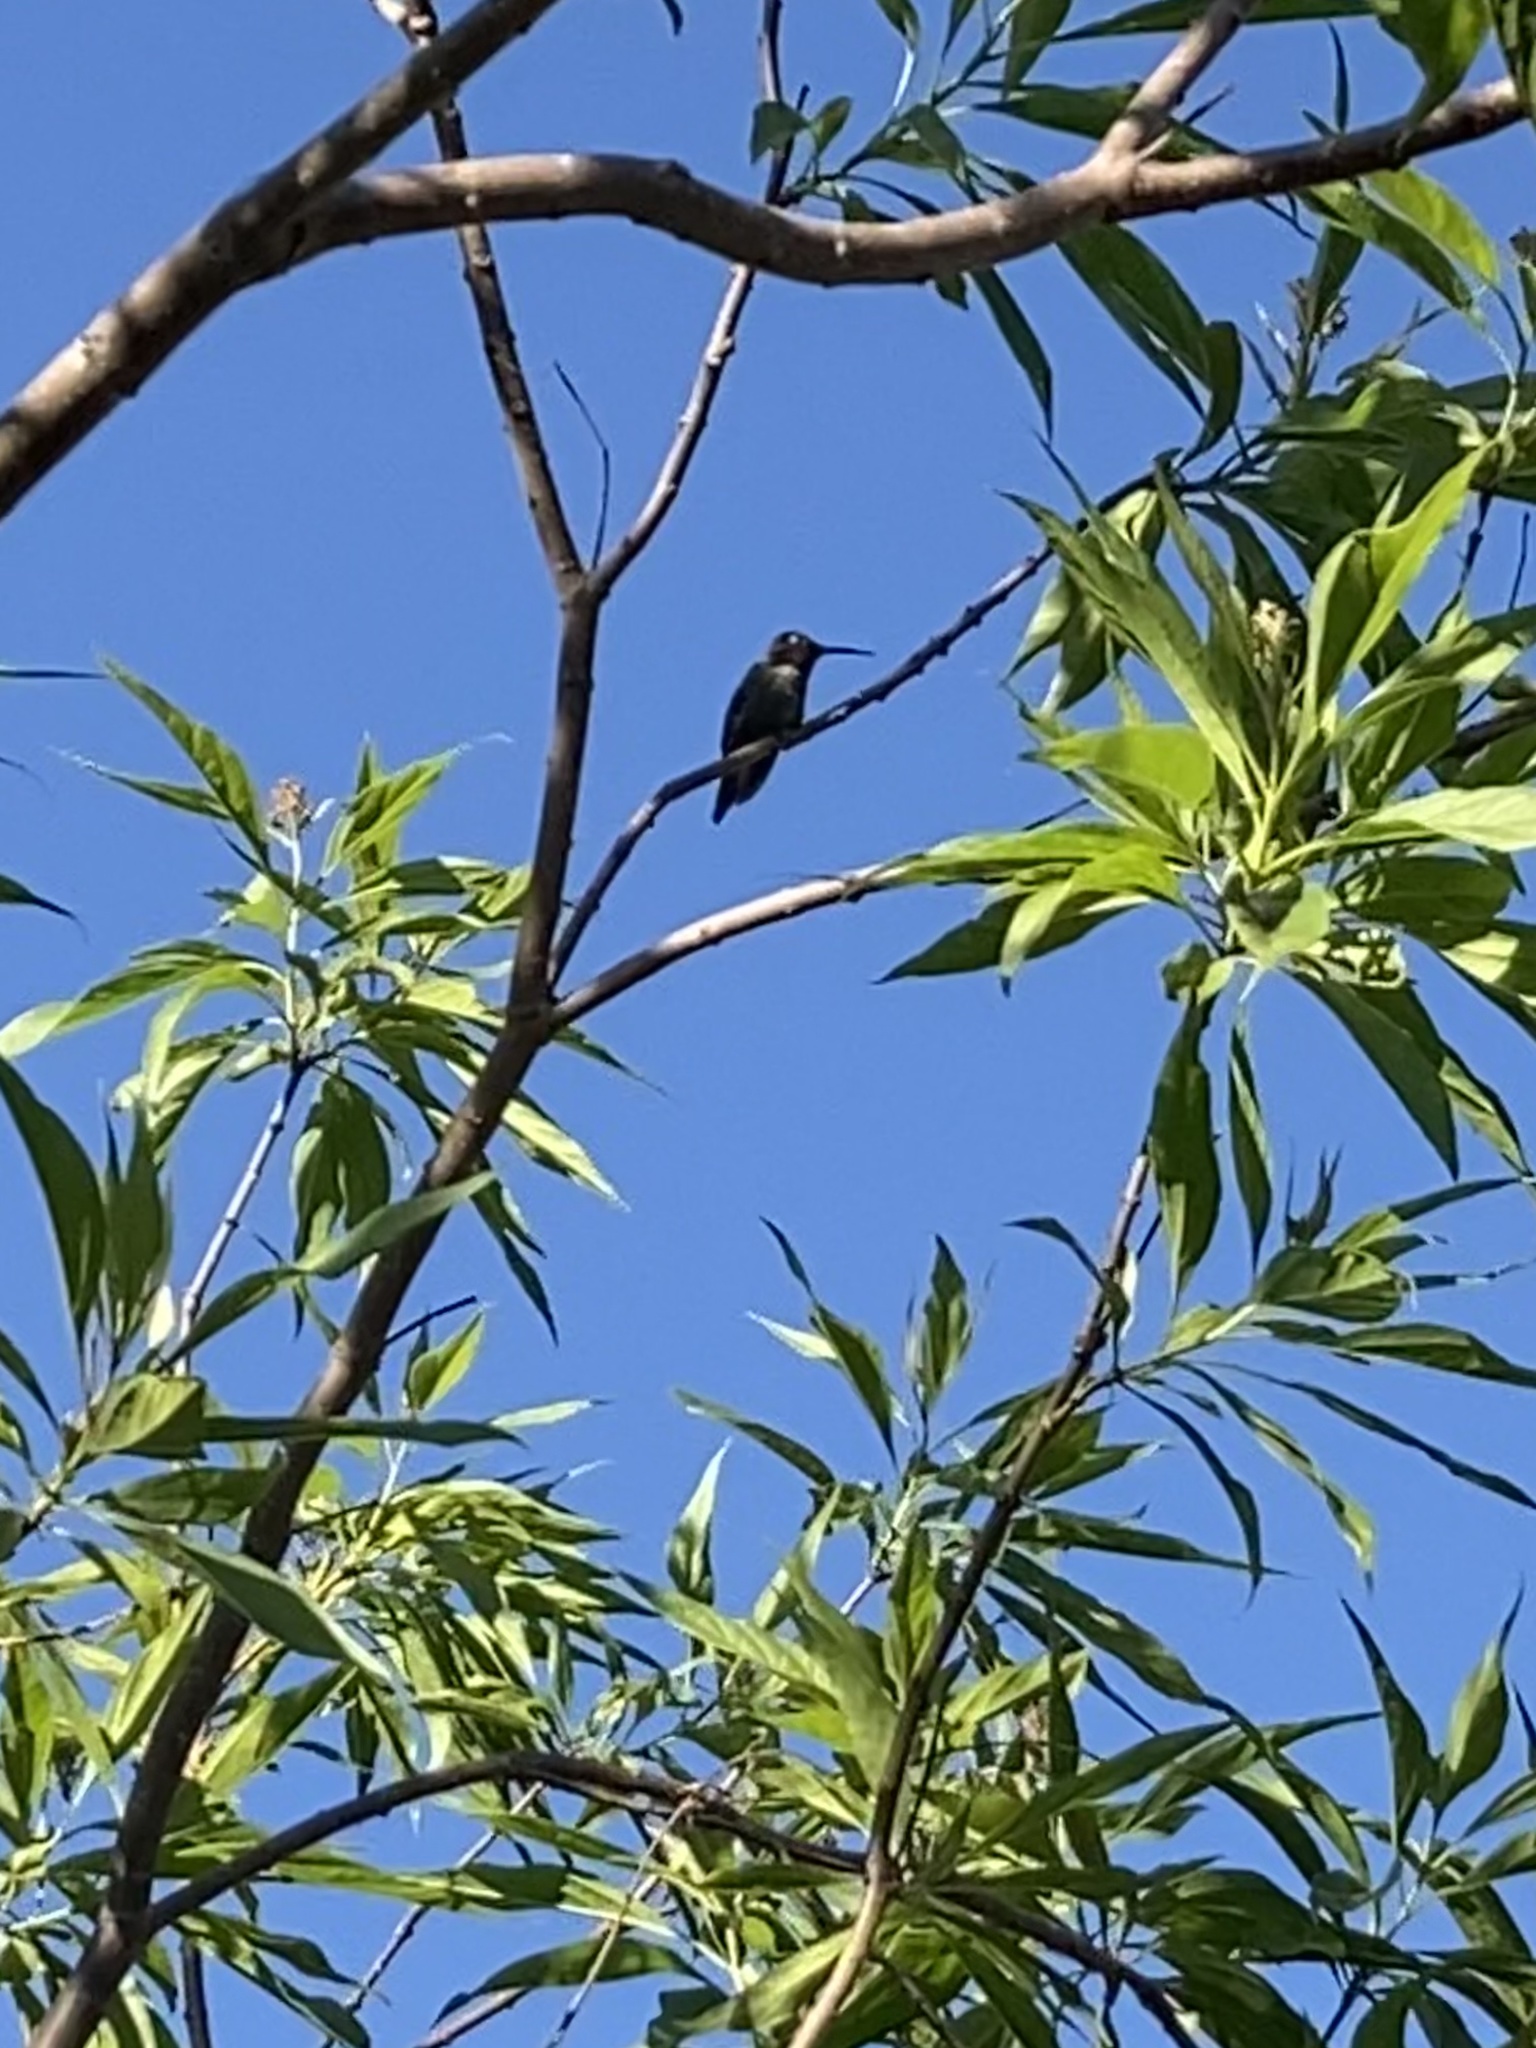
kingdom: Animalia
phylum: Chordata
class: Aves
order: Apodiformes
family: Trochilidae
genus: Calypte
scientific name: Calypte anna
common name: Anna's hummingbird
